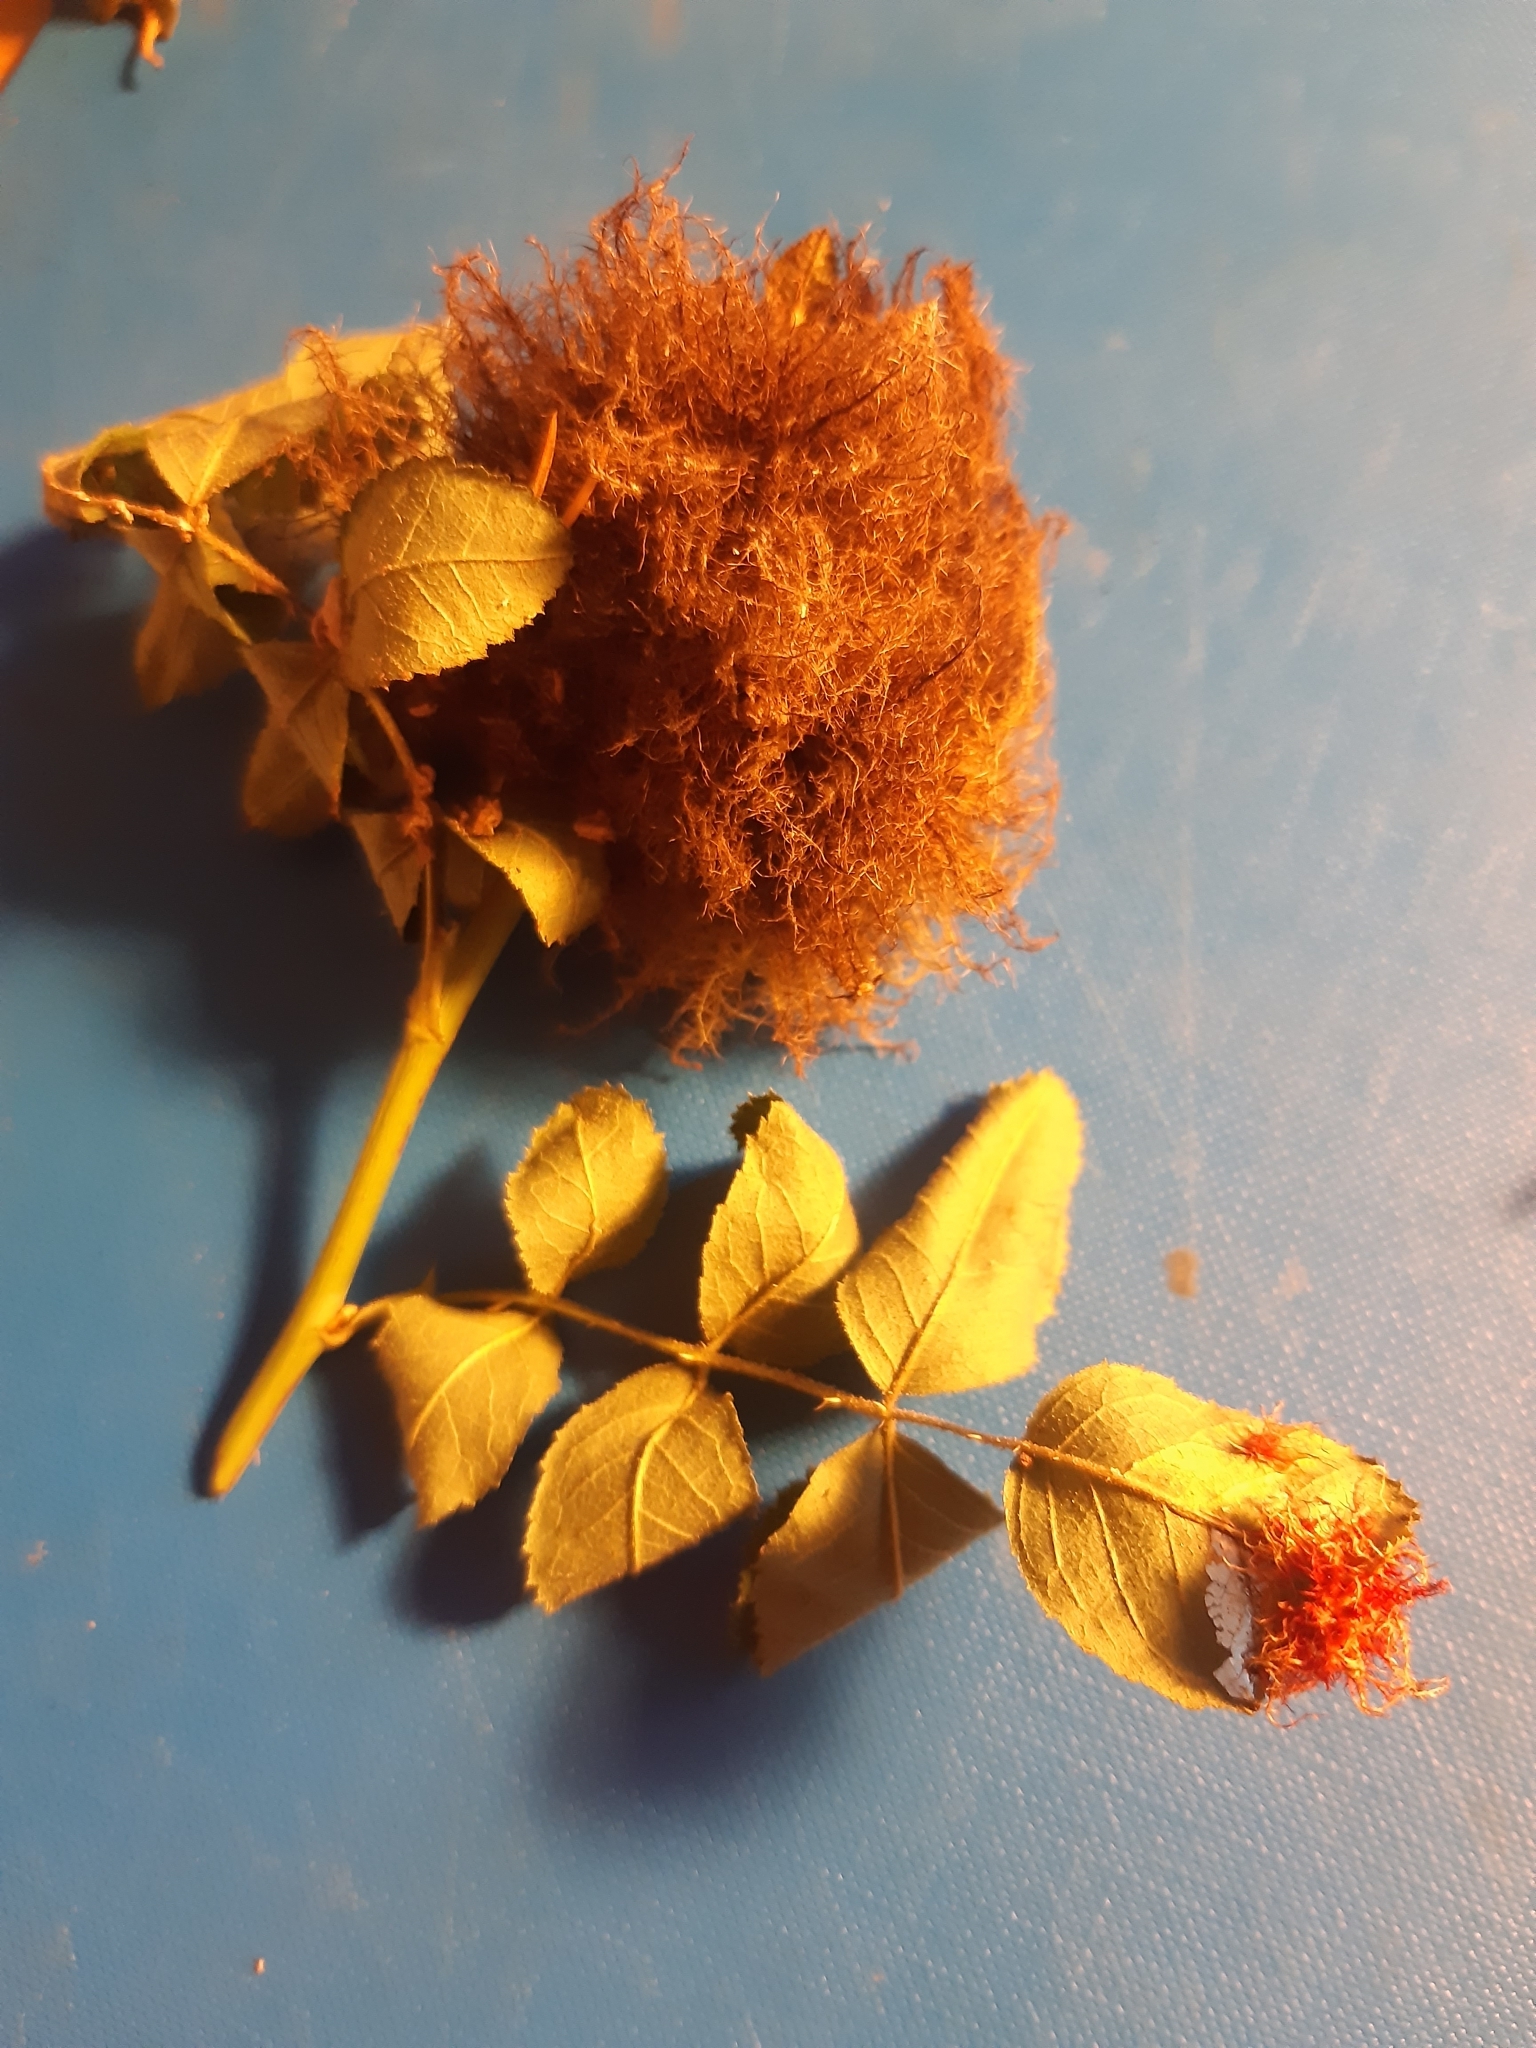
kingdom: Animalia
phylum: Arthropoda
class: Insecta
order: Hymenoptera
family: Cynipidae
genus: Diplolepis
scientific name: Diplolepis rosae
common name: Bedeguar gall
